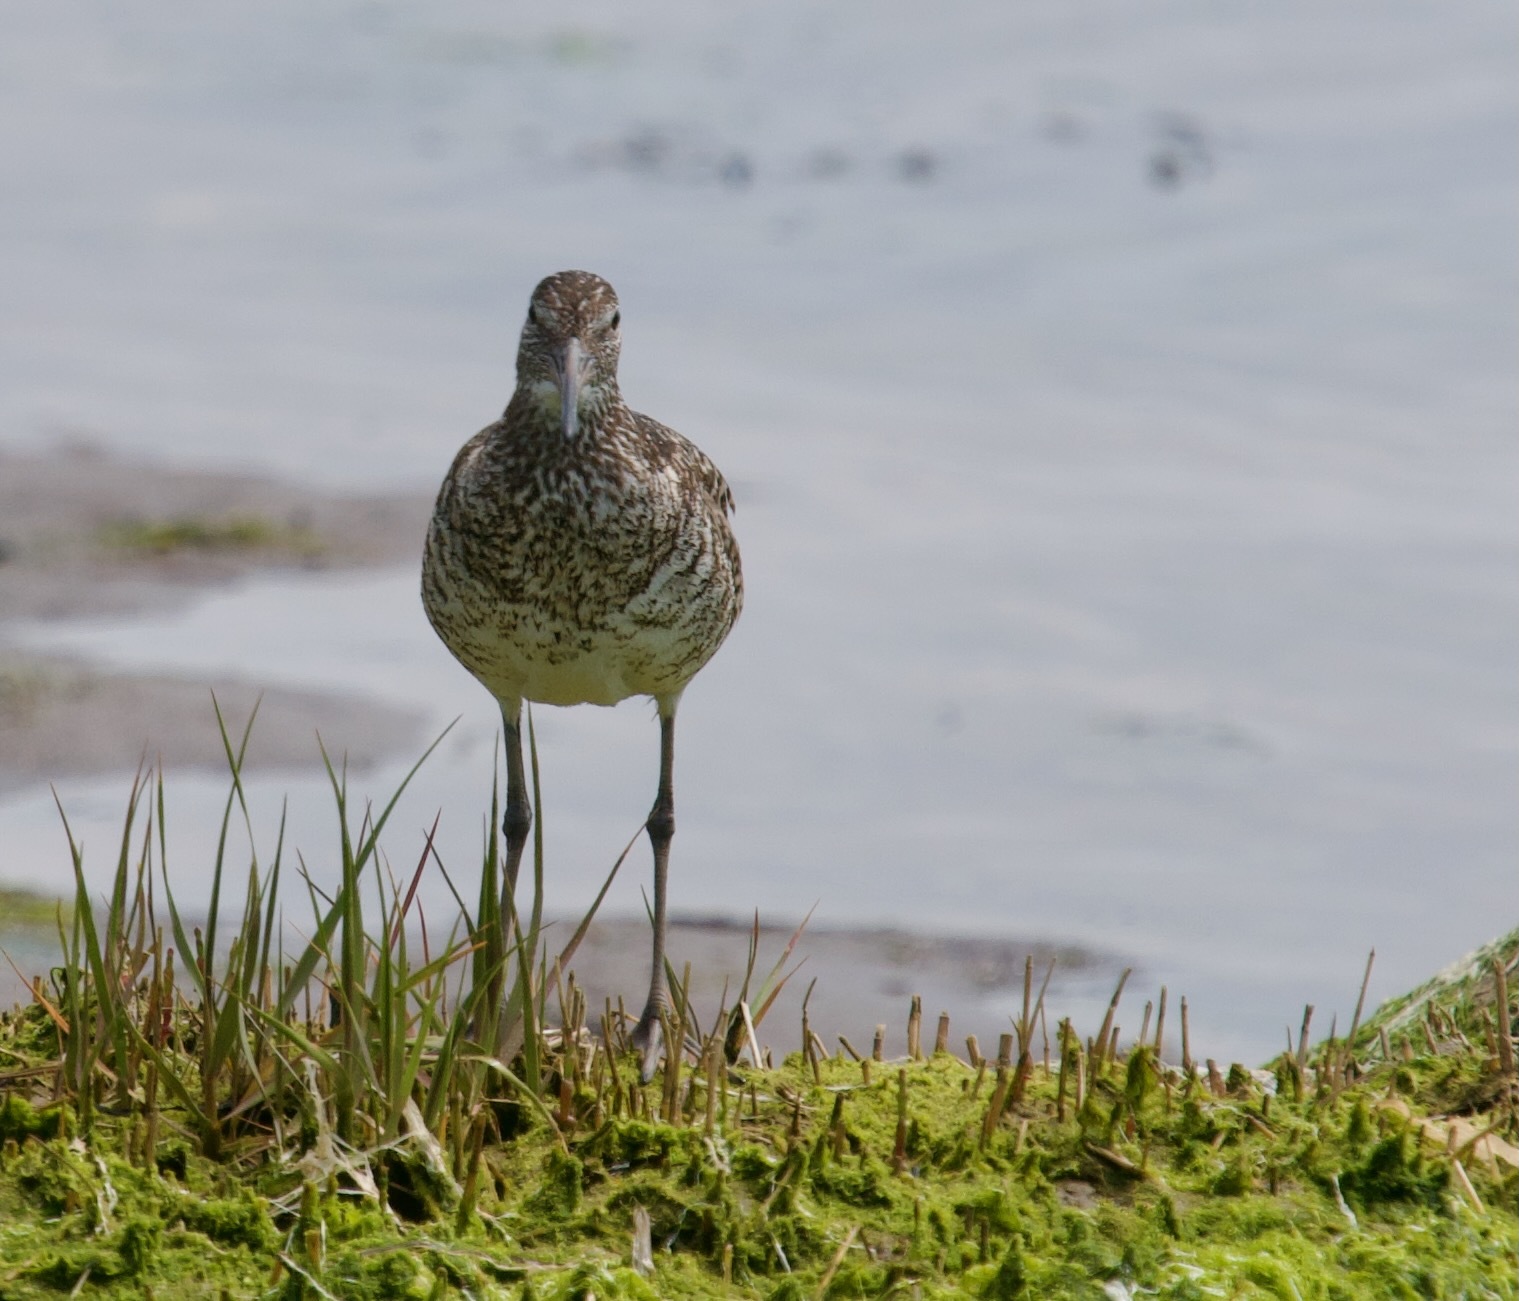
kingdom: Animalia
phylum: Chordata
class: Aves
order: Charadriiformes
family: Scolopacidae
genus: Tringa
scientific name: Tringa semipalmata
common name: Willet
